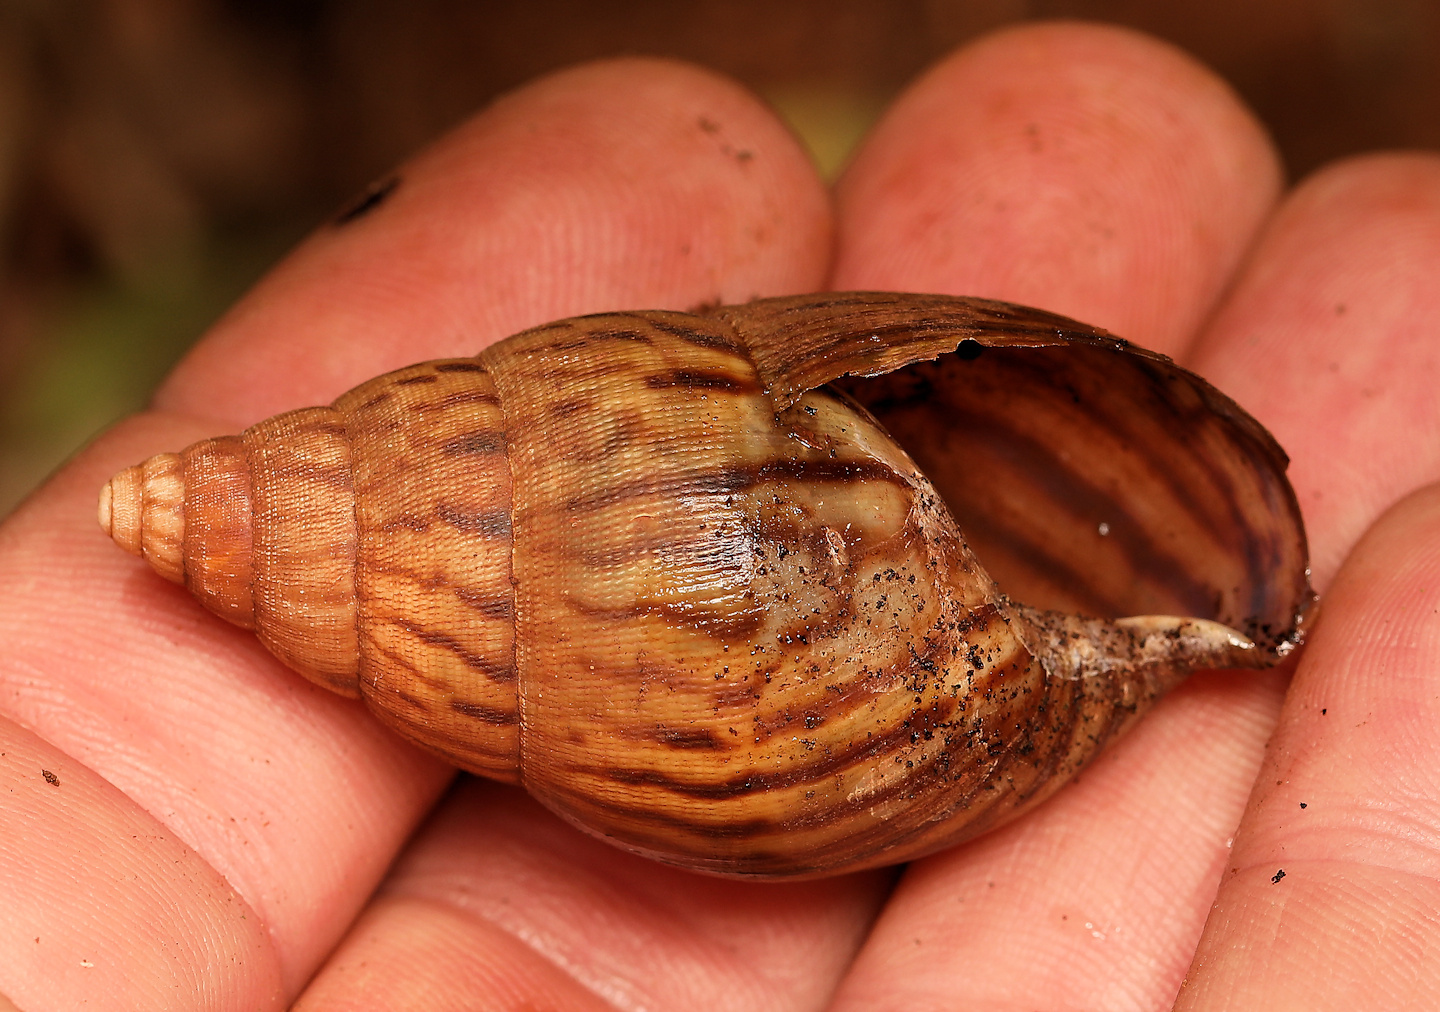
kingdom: Animalia
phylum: Mollusca
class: Gastropoda
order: Stylommatophora
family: Achatinidae
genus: Cochlitoma
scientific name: Cochlitoma granulata
